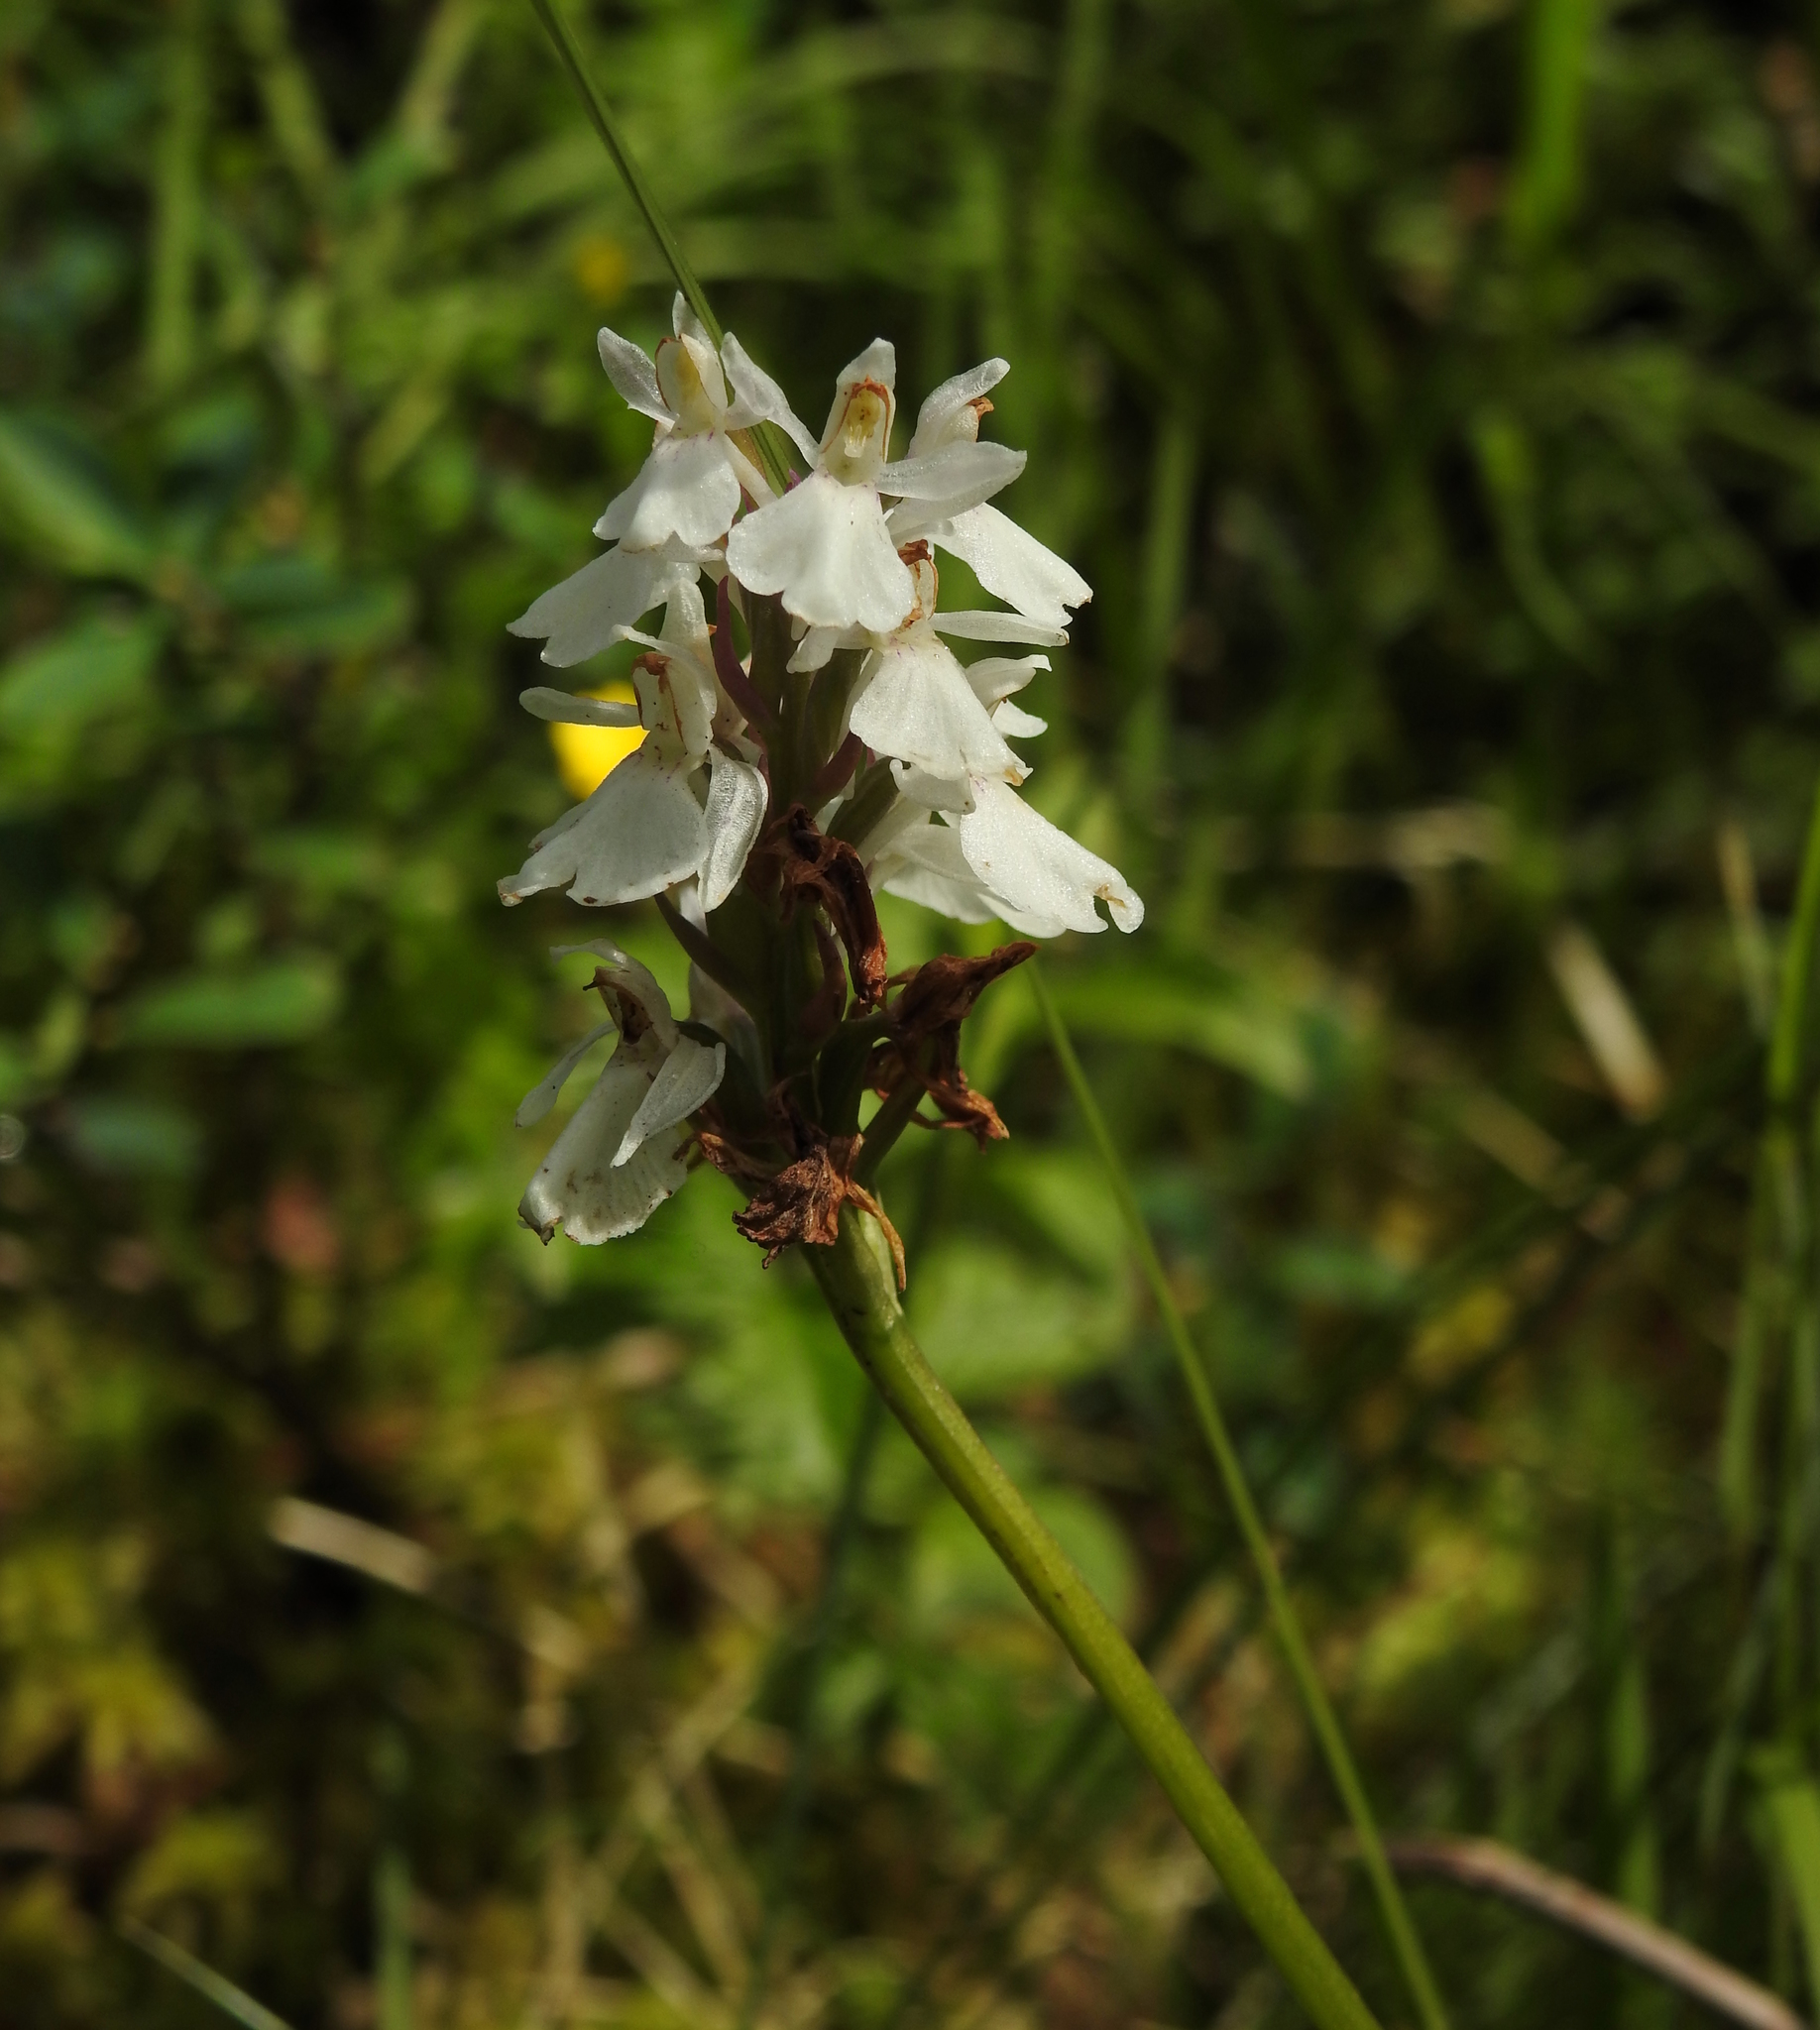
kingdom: Plantae
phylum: Tracheophyta
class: Liliopsida
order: Asparagales
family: Orchidaceae
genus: Dactylorhiza
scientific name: Dactylorhiza maculata
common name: Heath spotted-orchid
